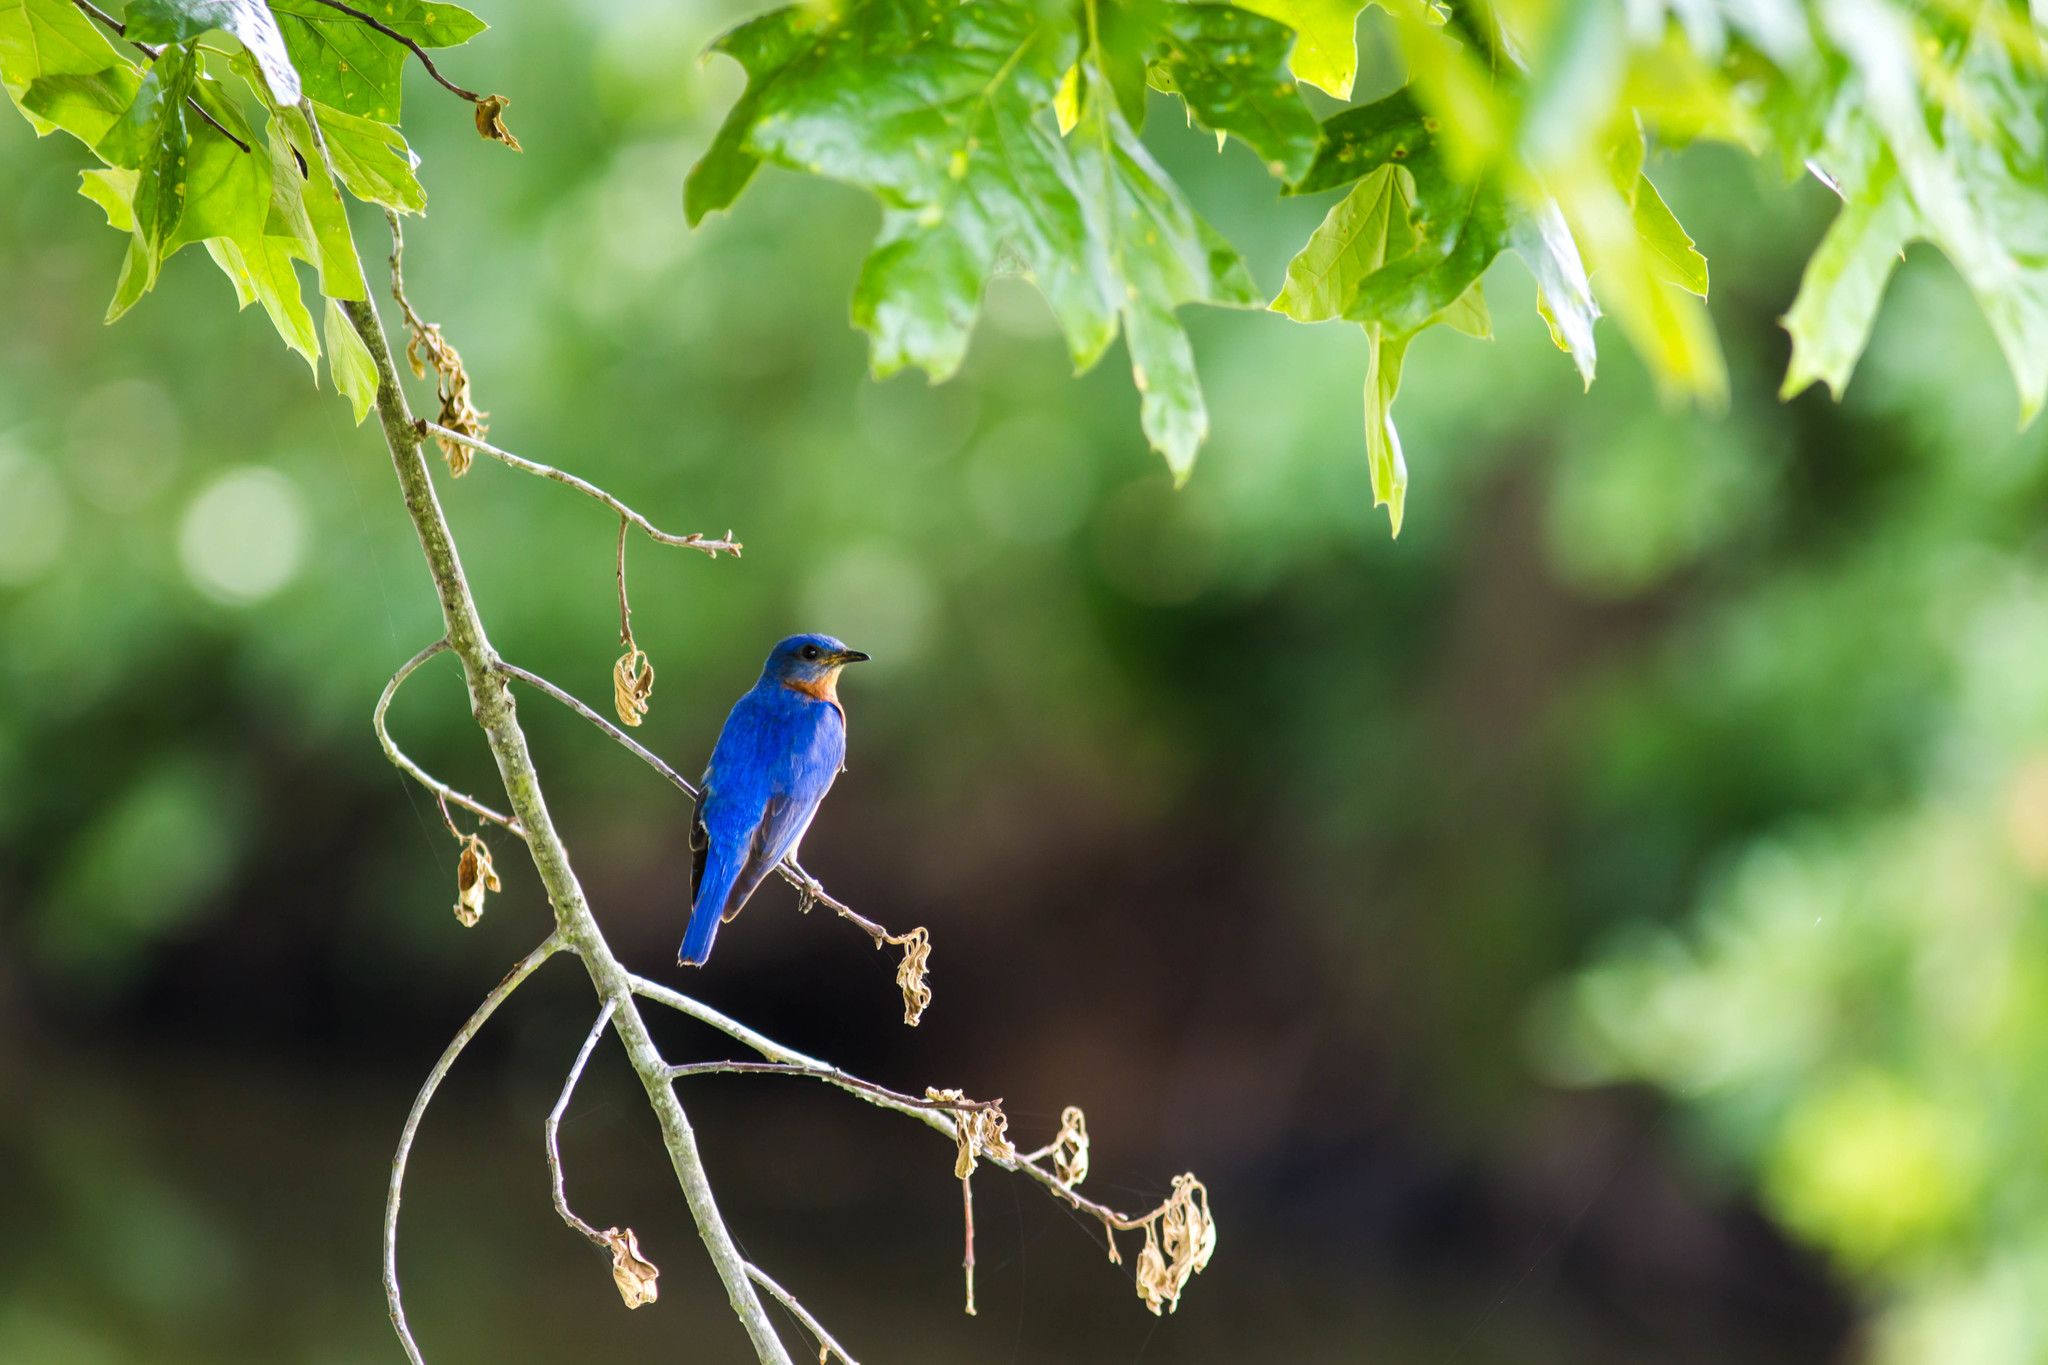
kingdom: Animalia
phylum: Chordata
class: Aves
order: Passeriformes
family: Turdidae
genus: Sialia
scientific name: Sialia sialis
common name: Eastern bluebird
